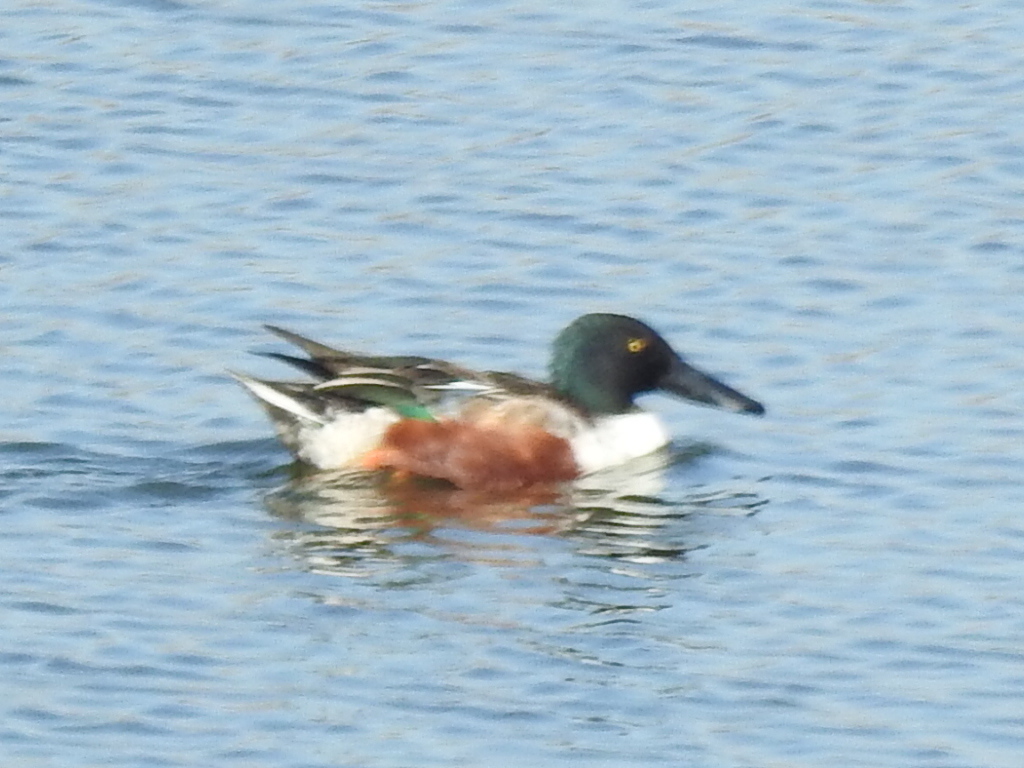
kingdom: Animalia
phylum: Chordata
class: Aves
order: Anseriformes
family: Anatidae
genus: Spatula
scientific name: Spatula clypeata
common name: Northern shoveler
